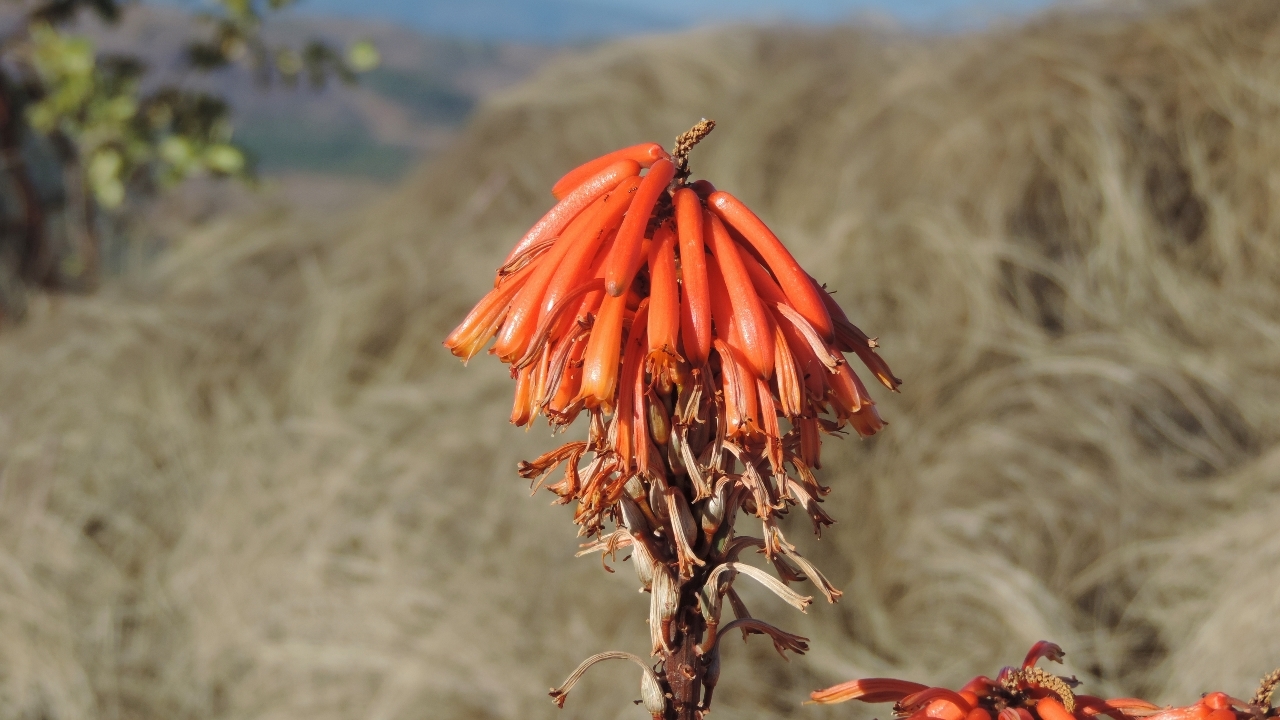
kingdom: Plantae
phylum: Tracheophyta
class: Liliopsida
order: Asparagales
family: Asphodelaceae
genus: Aloe
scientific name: Aloe cameronii
